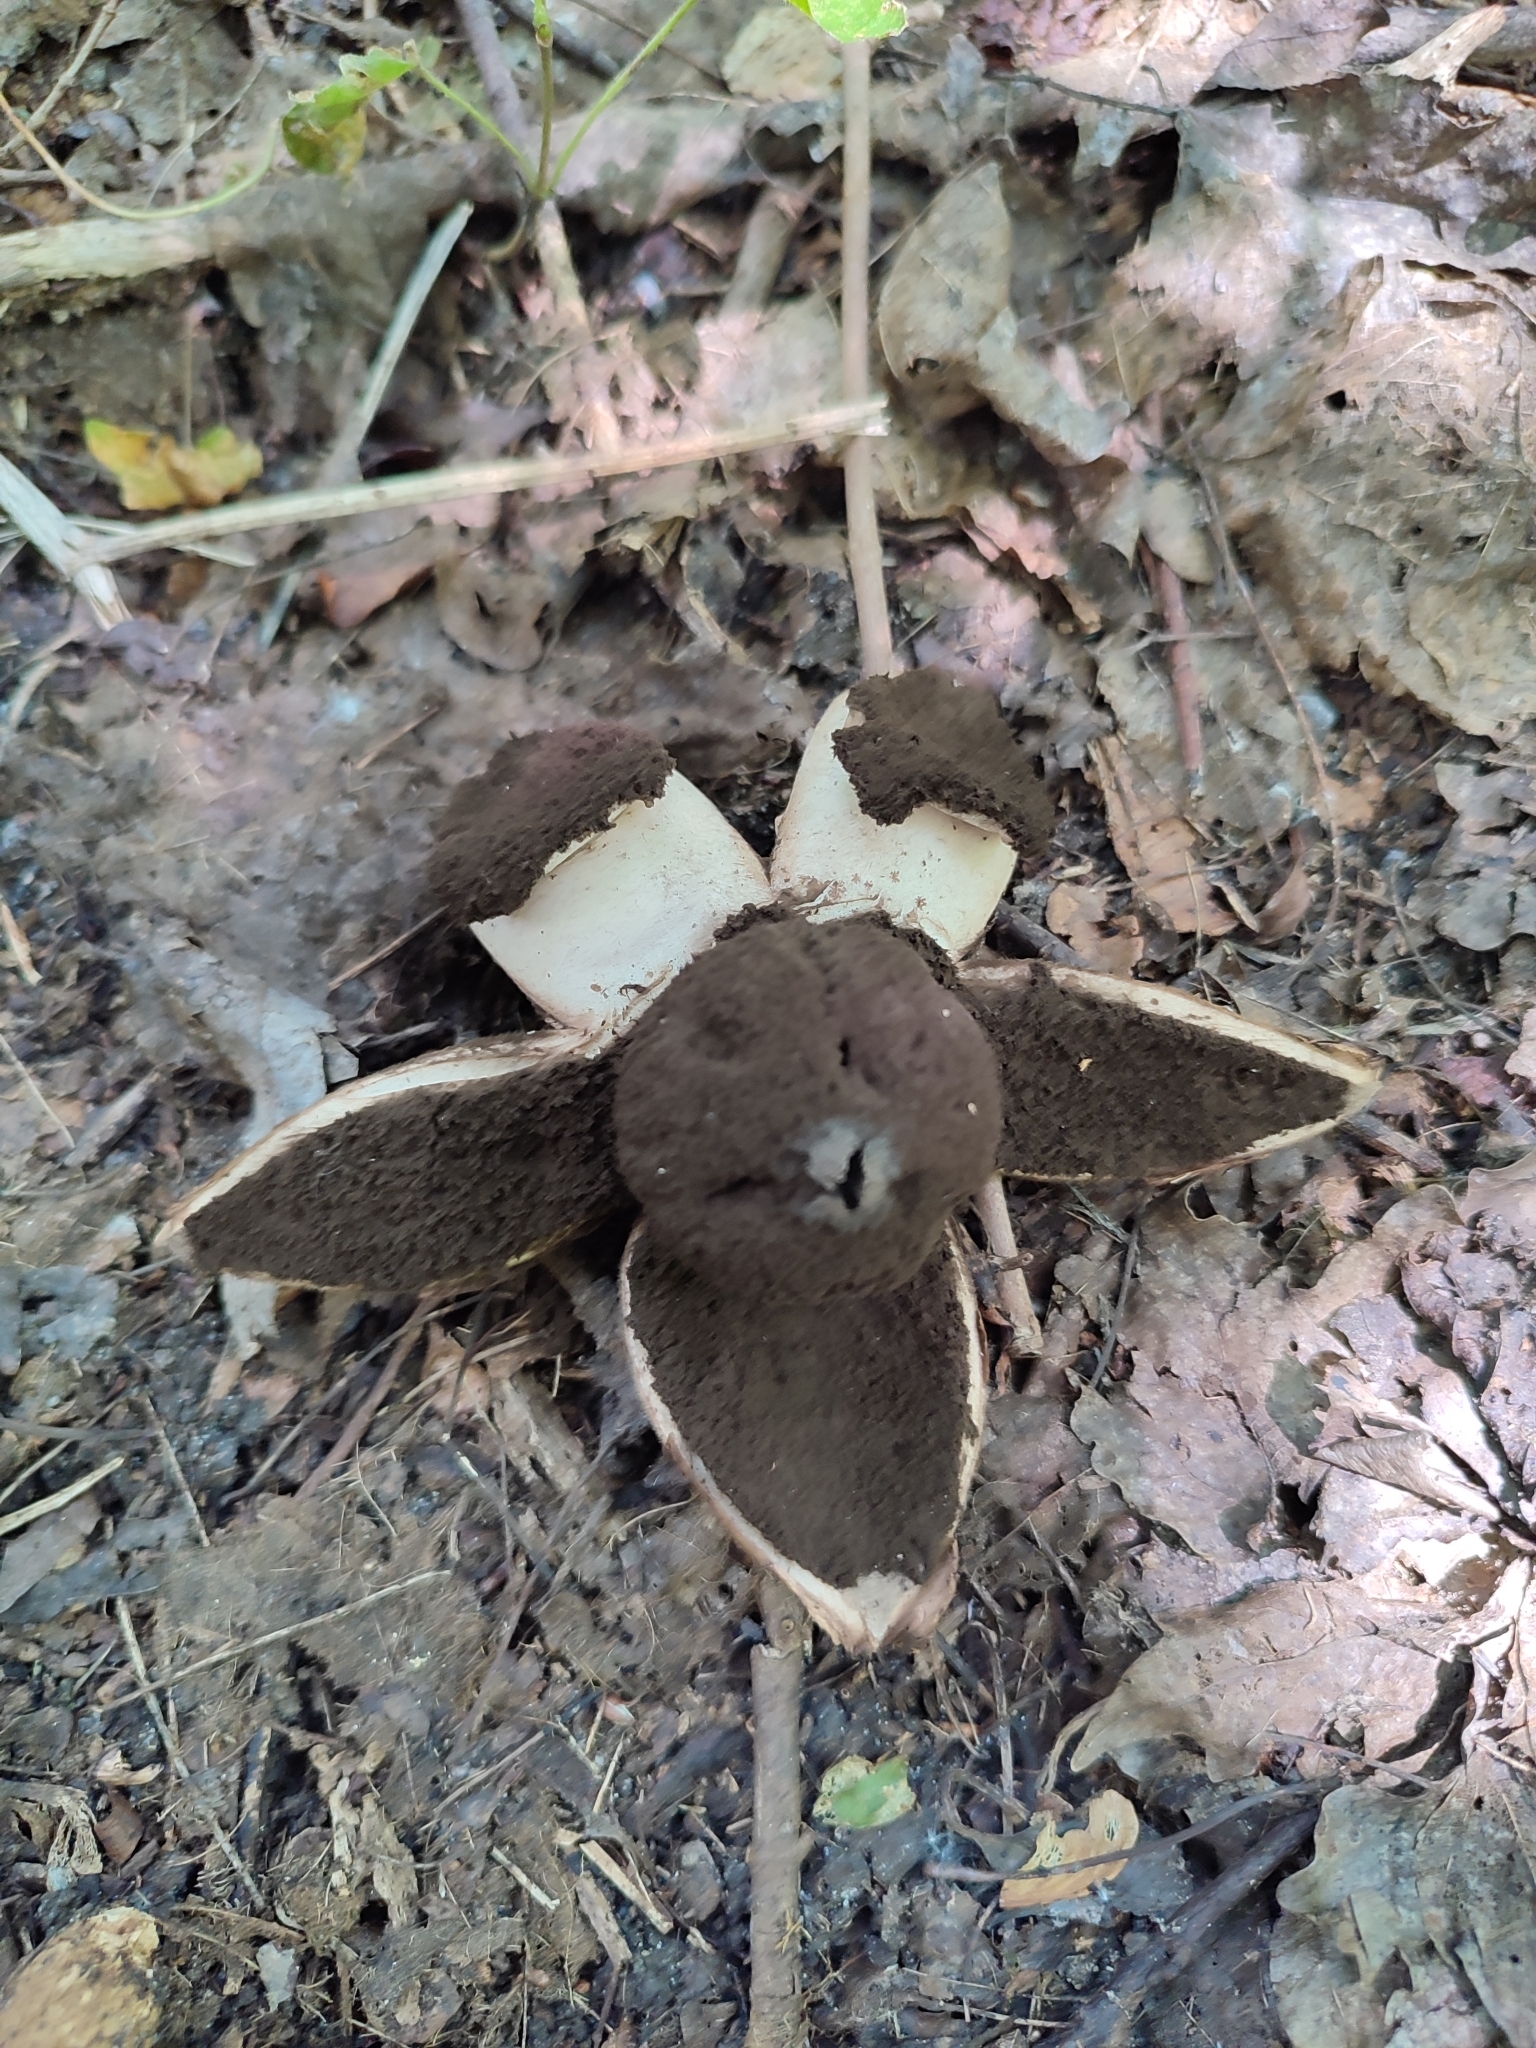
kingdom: Fungi
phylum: Basidiomycota
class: Agaricomycetes
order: Geastrales
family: Geastraceae
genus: Geastrum
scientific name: Geastrum melanocephalum
